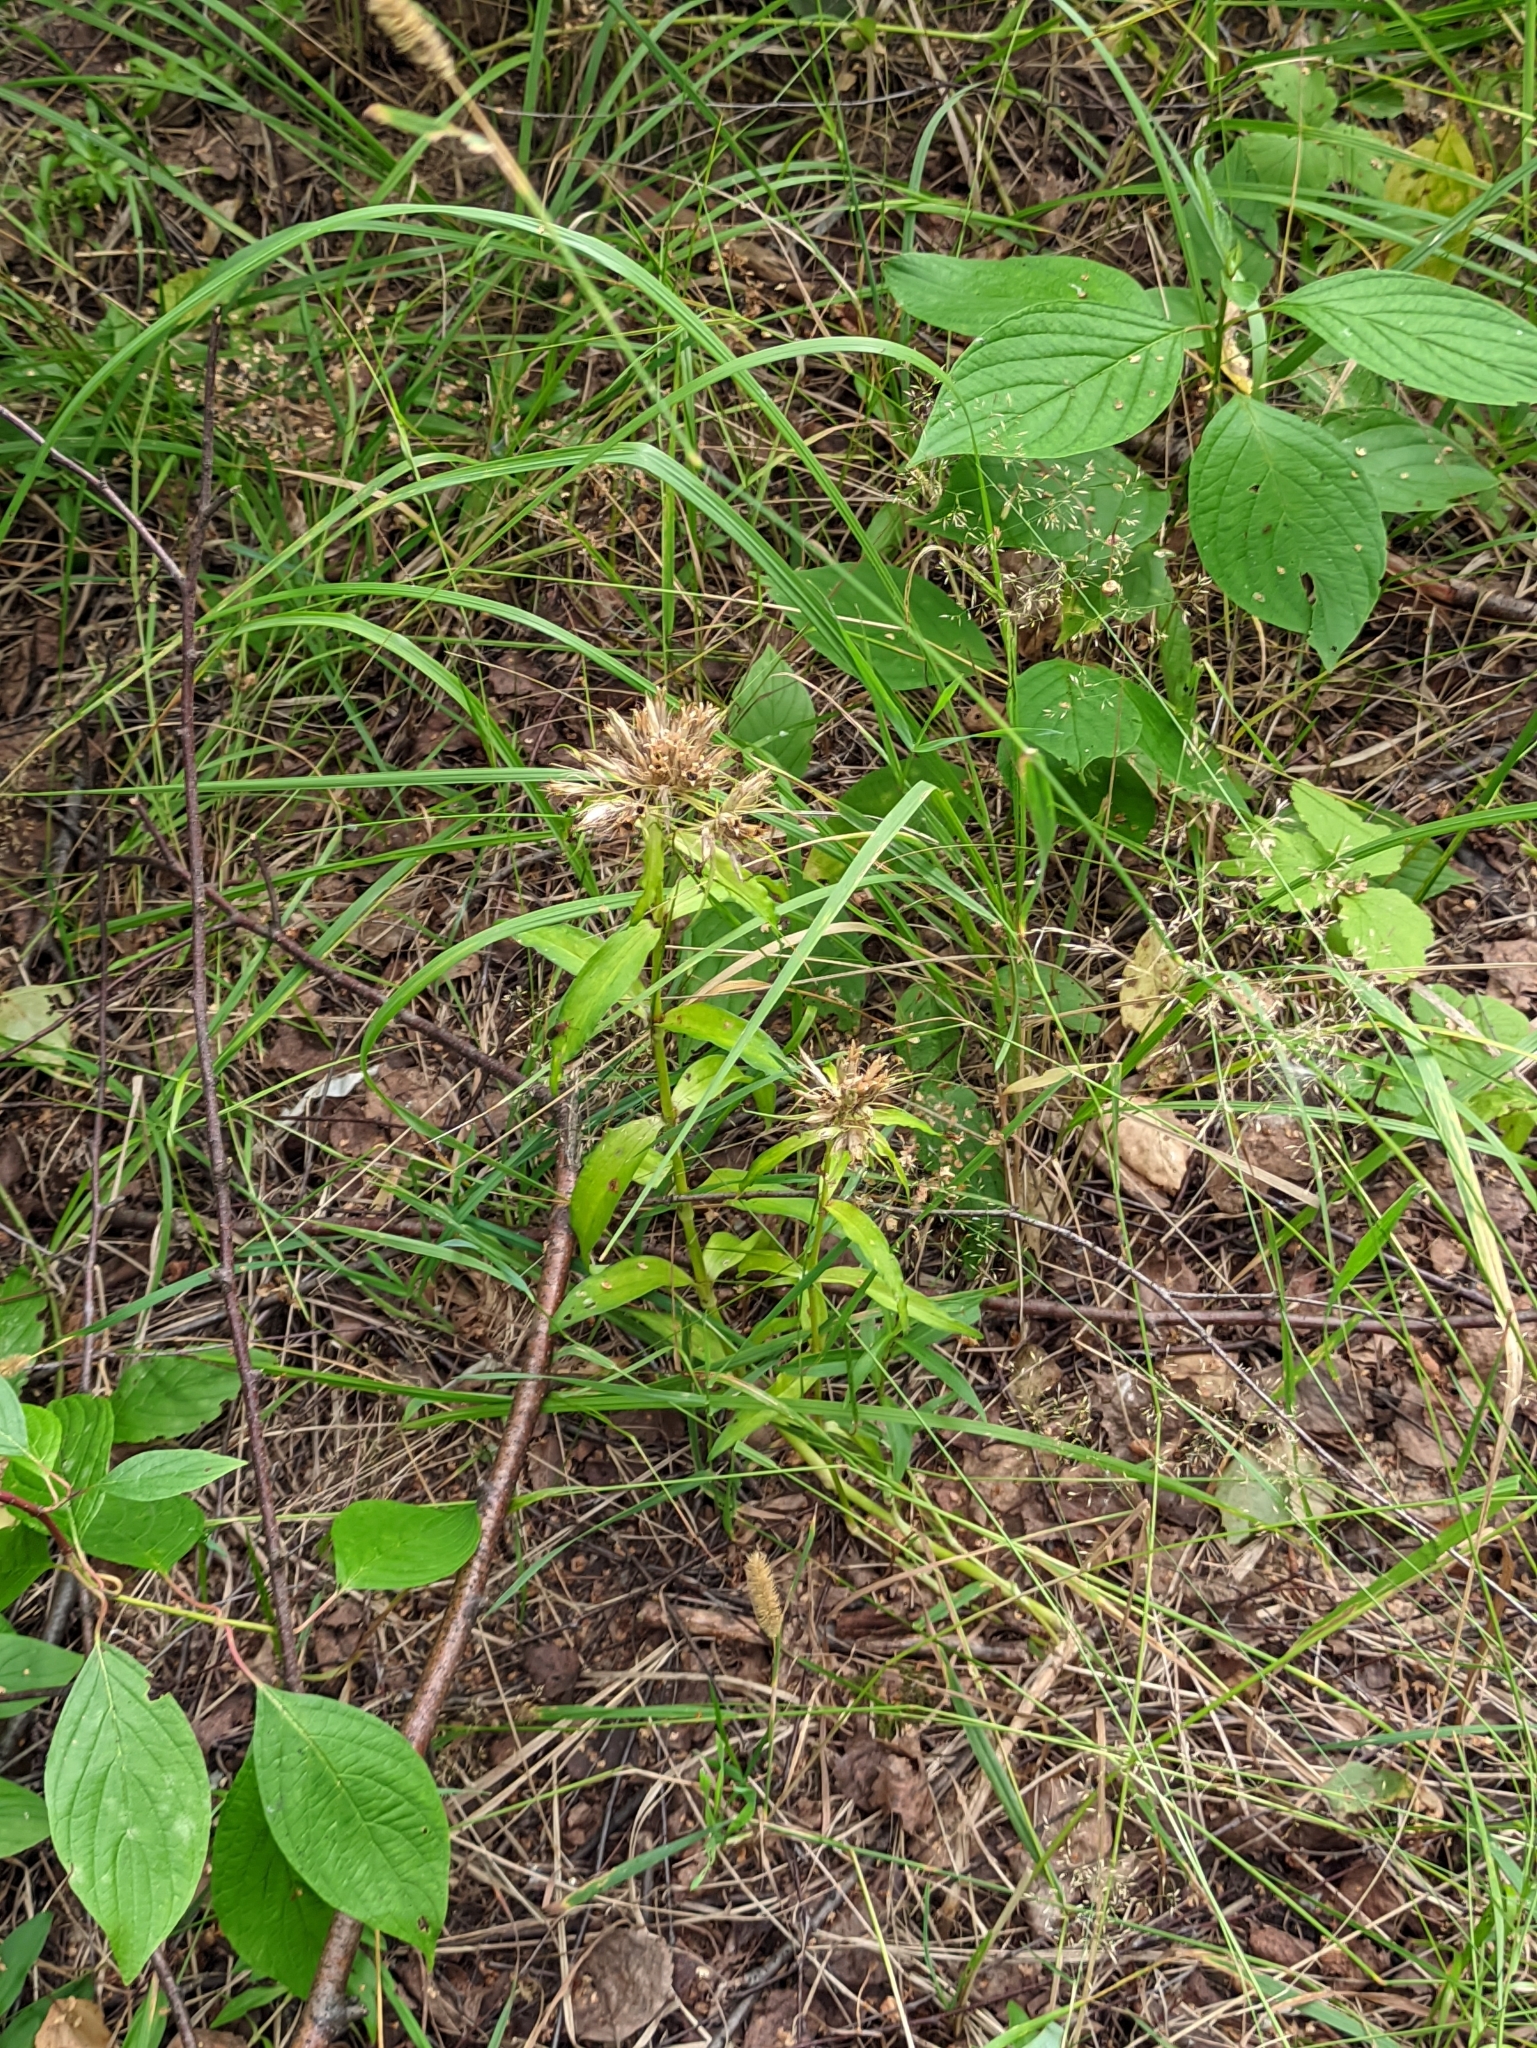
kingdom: Plantae
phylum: Tracheophyta
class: Magnoliopsida
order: Caryophyllales
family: Caryophyllaceae
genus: Dianthus
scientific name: Dianthus barbatus
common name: Sweet-william
